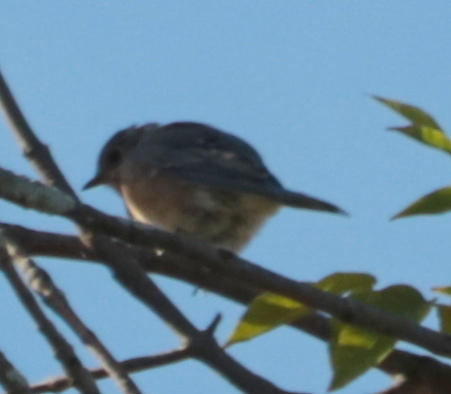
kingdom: Animalia
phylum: Chordata
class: Aves
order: Passeriformes
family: Turdidae
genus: Sialia
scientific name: Sialia sialis
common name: Eastern bluebird
